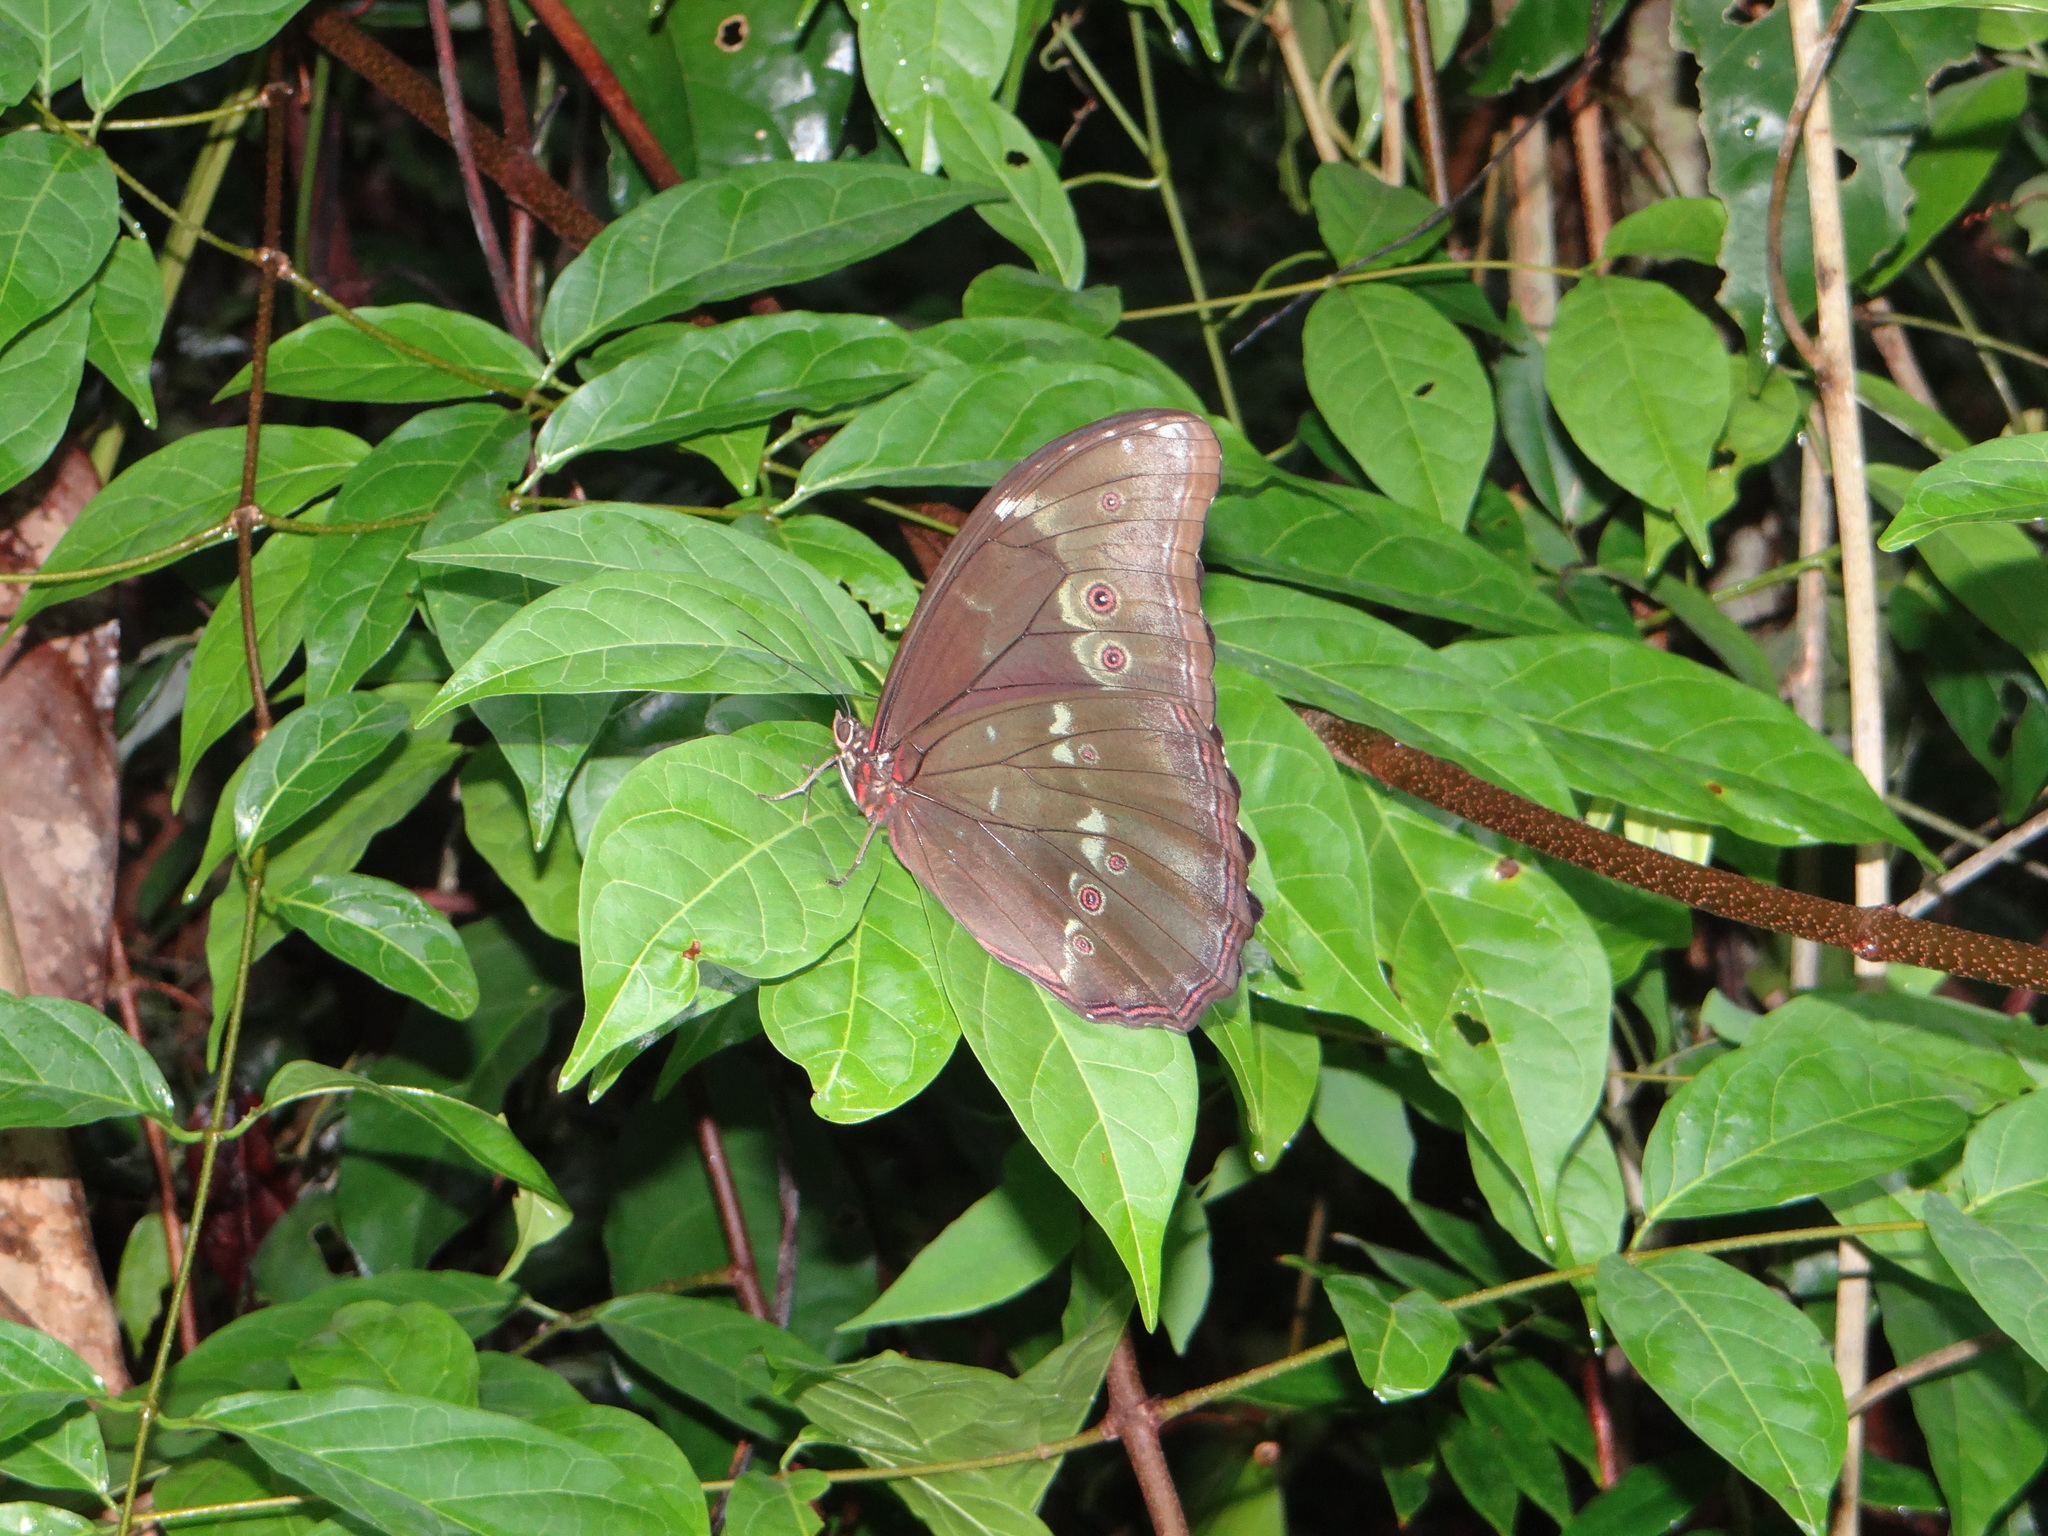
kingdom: Animalia
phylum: Arthropoda
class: Insecta
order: Lepidoptera
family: Nymphalidae
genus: Morpho
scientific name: Morpho menelaus
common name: Menelaus morpho
